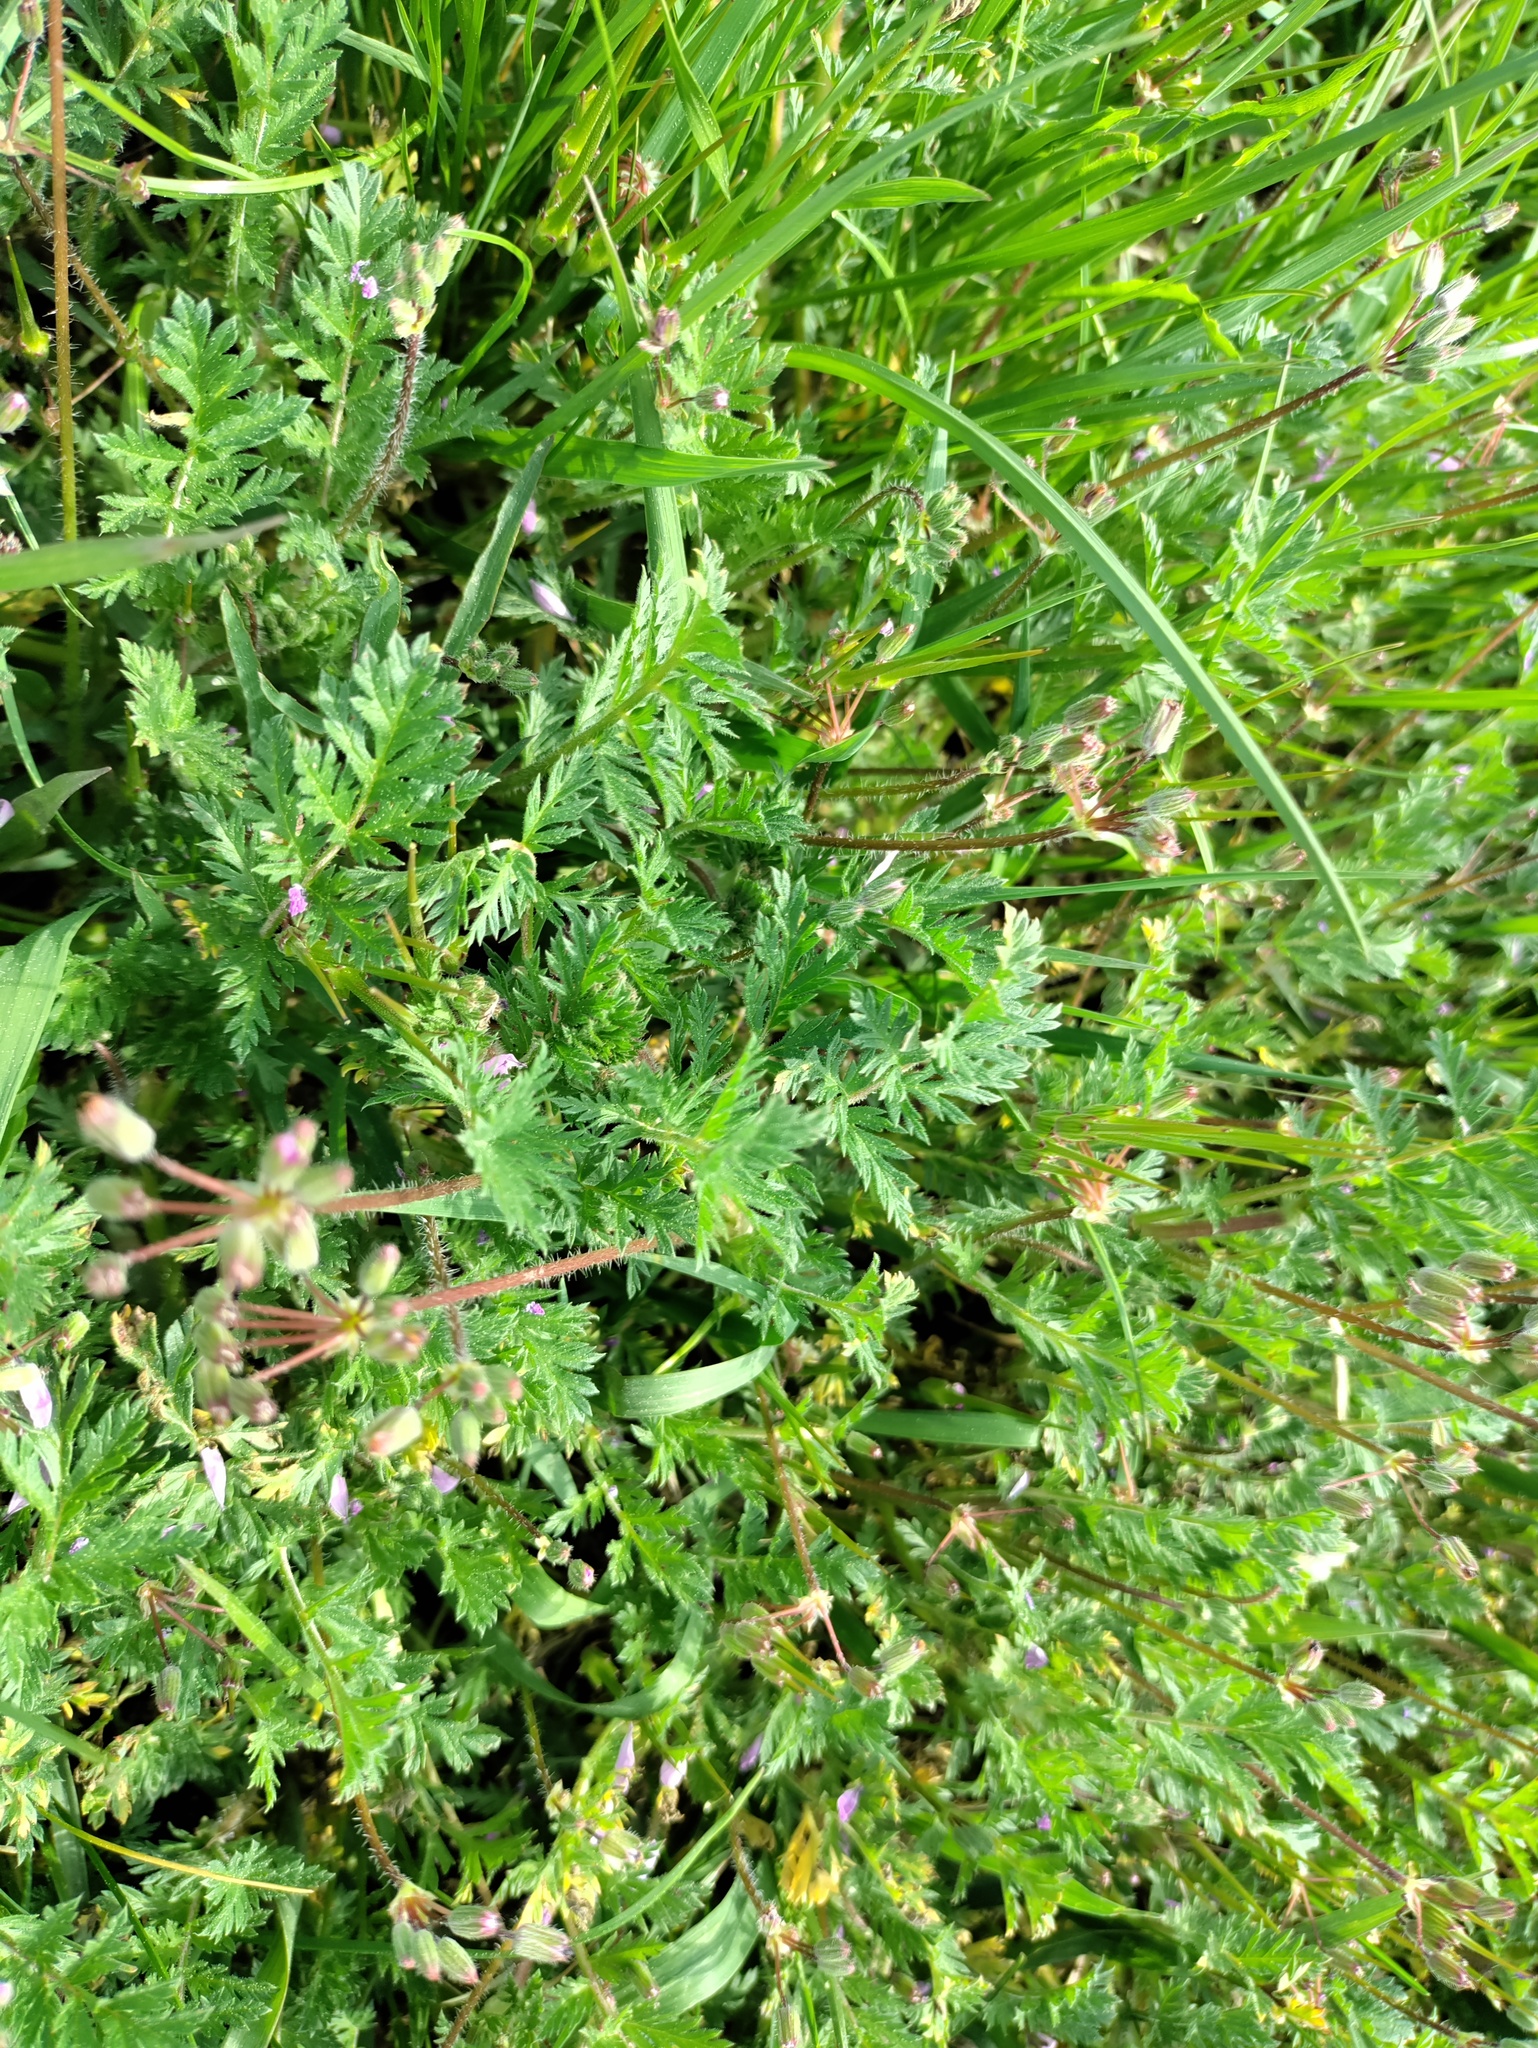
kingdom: Plantae
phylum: Tracheophyta
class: Magnoliopsida
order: Geraniales
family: Geraniaceae
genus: Erodium
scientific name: Erodium cicutarium
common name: Common stork's-bill
